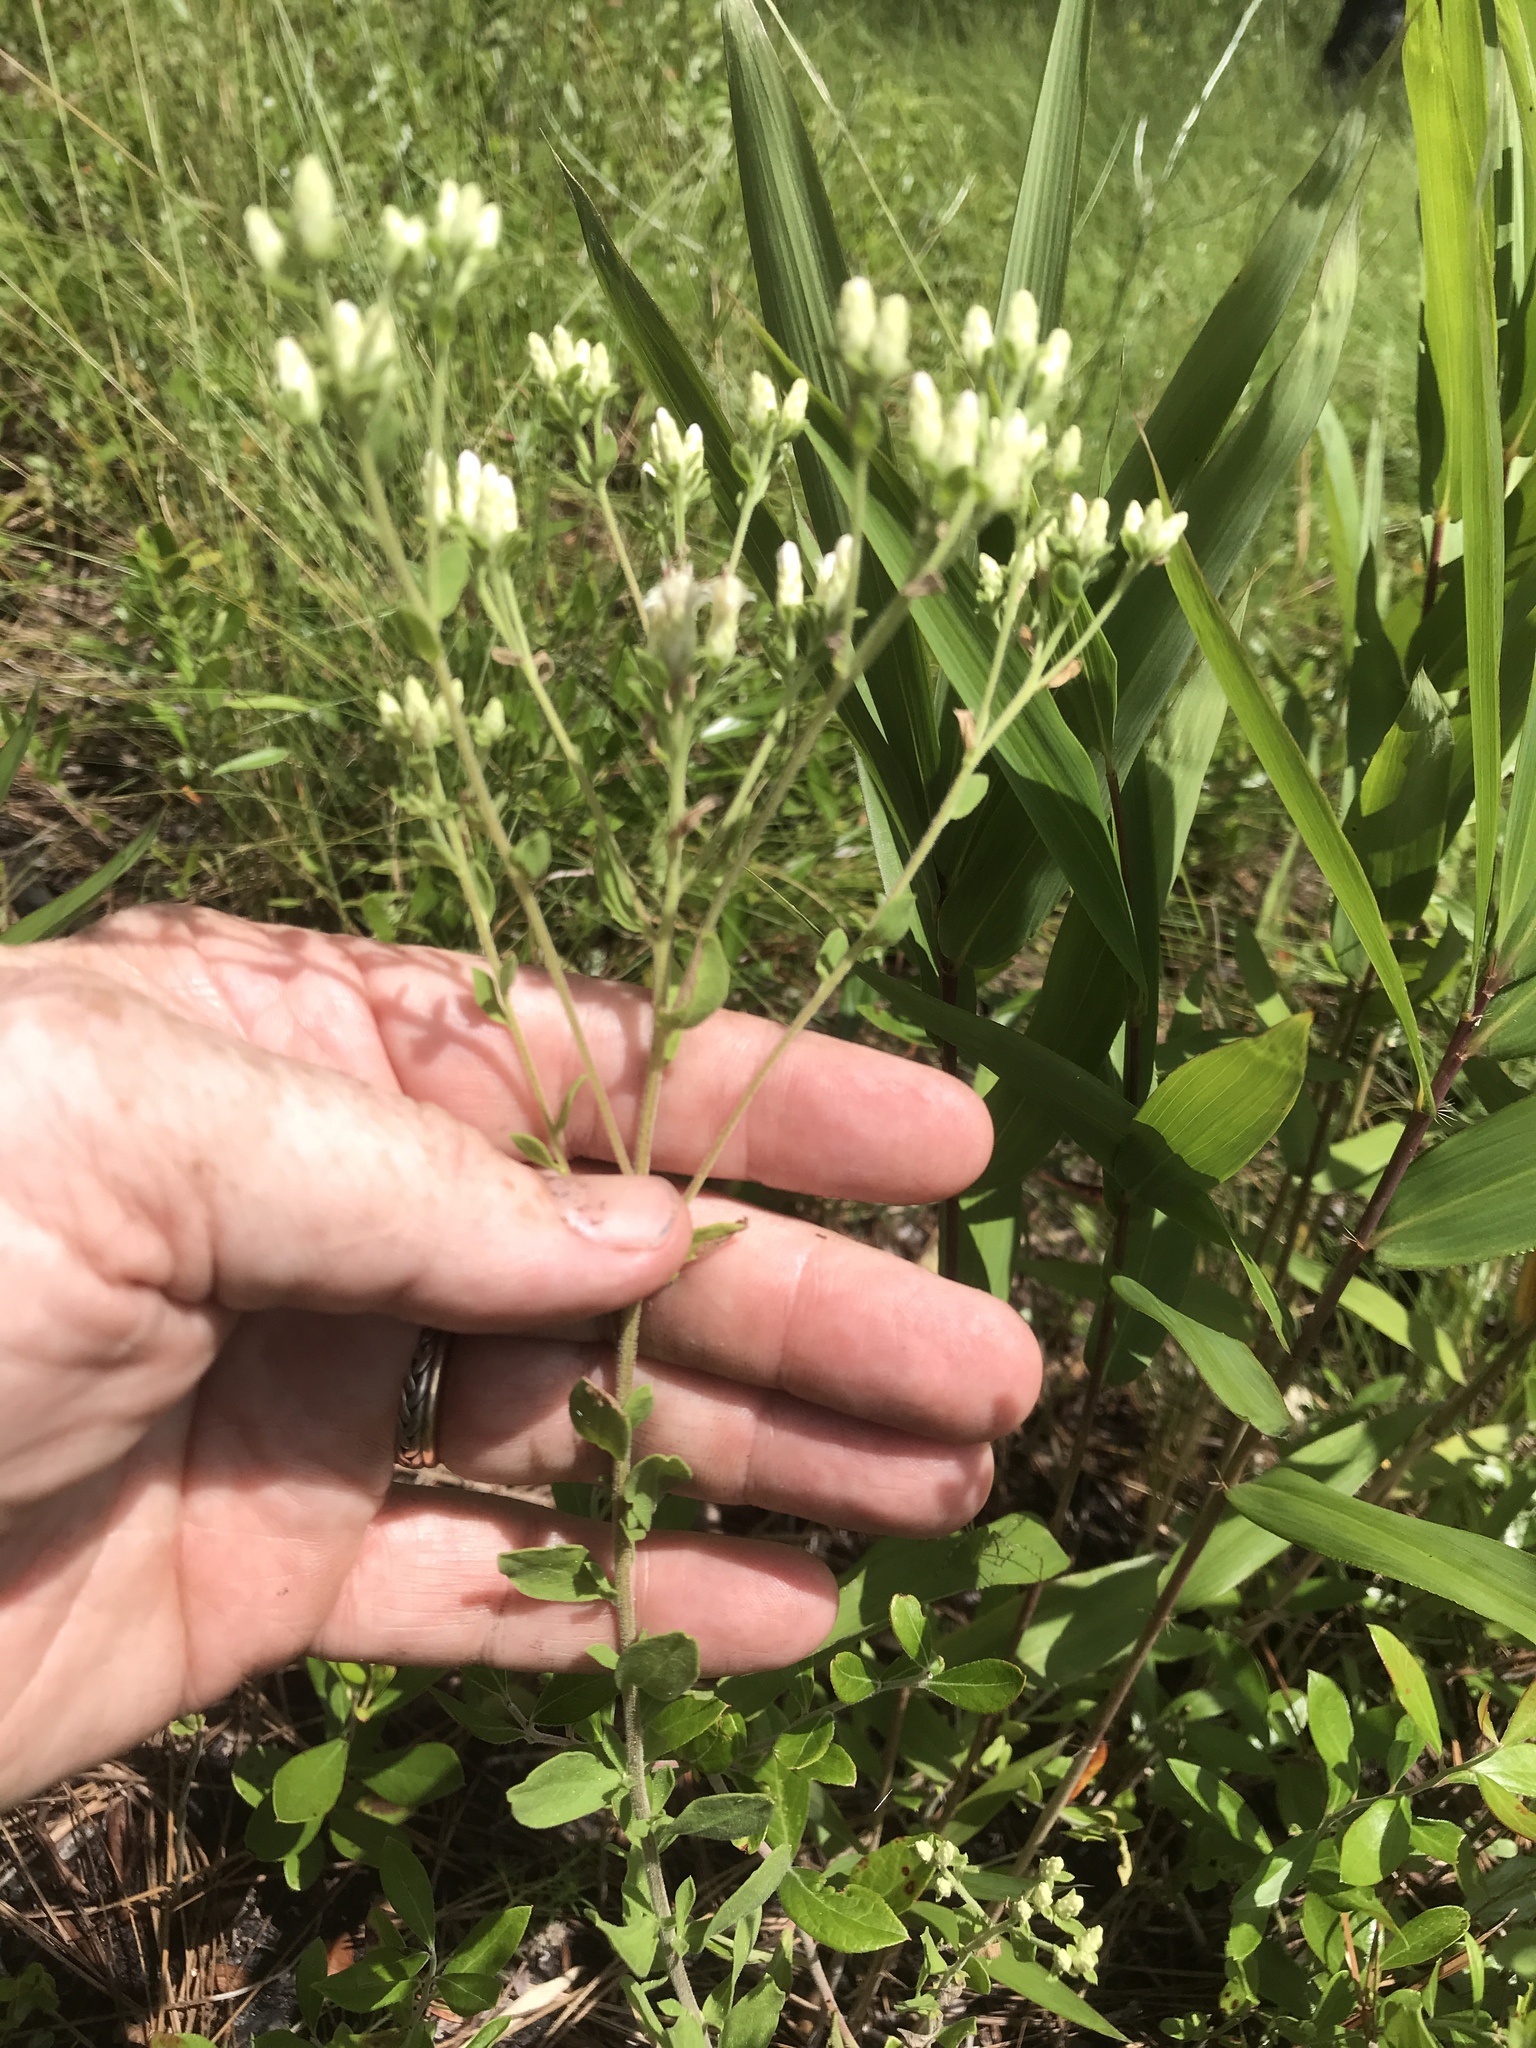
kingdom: Plantae
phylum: Tracheophyta
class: Magnoliopsida
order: Asterales
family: Asteraceae
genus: Sericocarpus
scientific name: Sericocarpus tortifolius
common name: Dixie aster
